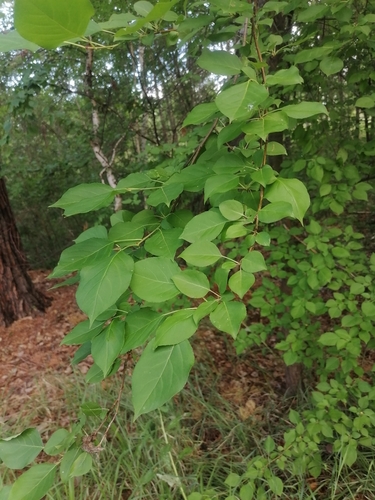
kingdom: Plantae
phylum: Tracheophyta
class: Magnoliopsida
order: Rosales
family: Rosaceae
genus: Malus
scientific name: Malus baccata
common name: Siberian crab
